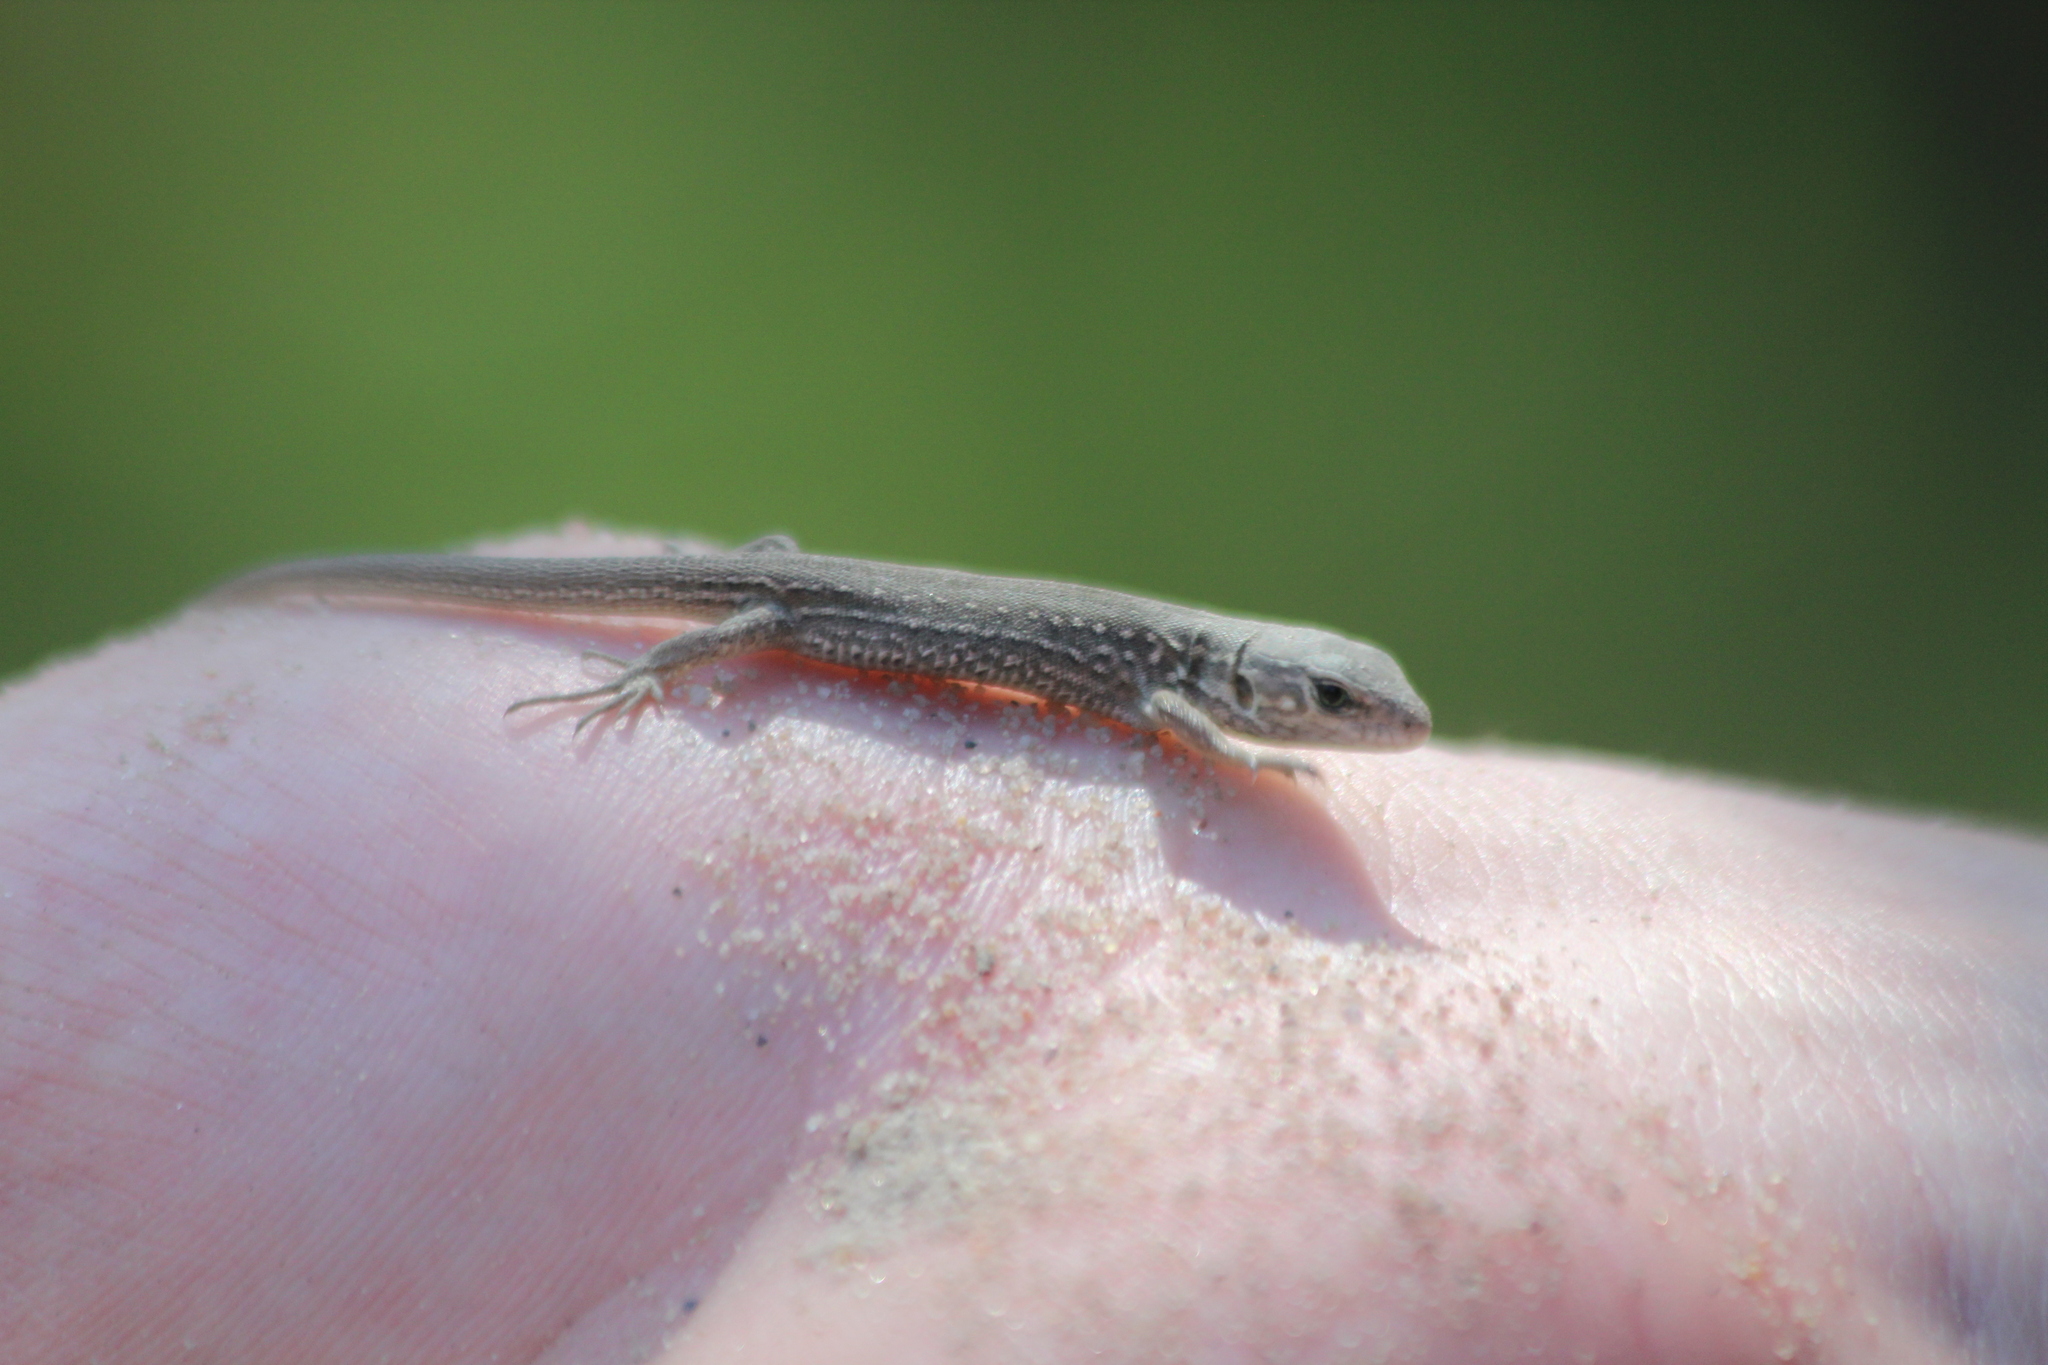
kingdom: Animalia
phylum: Chordata
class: Squamata
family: Lacertidae
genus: Lacerta
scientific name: Lacerta agilis
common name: Sand lizard
